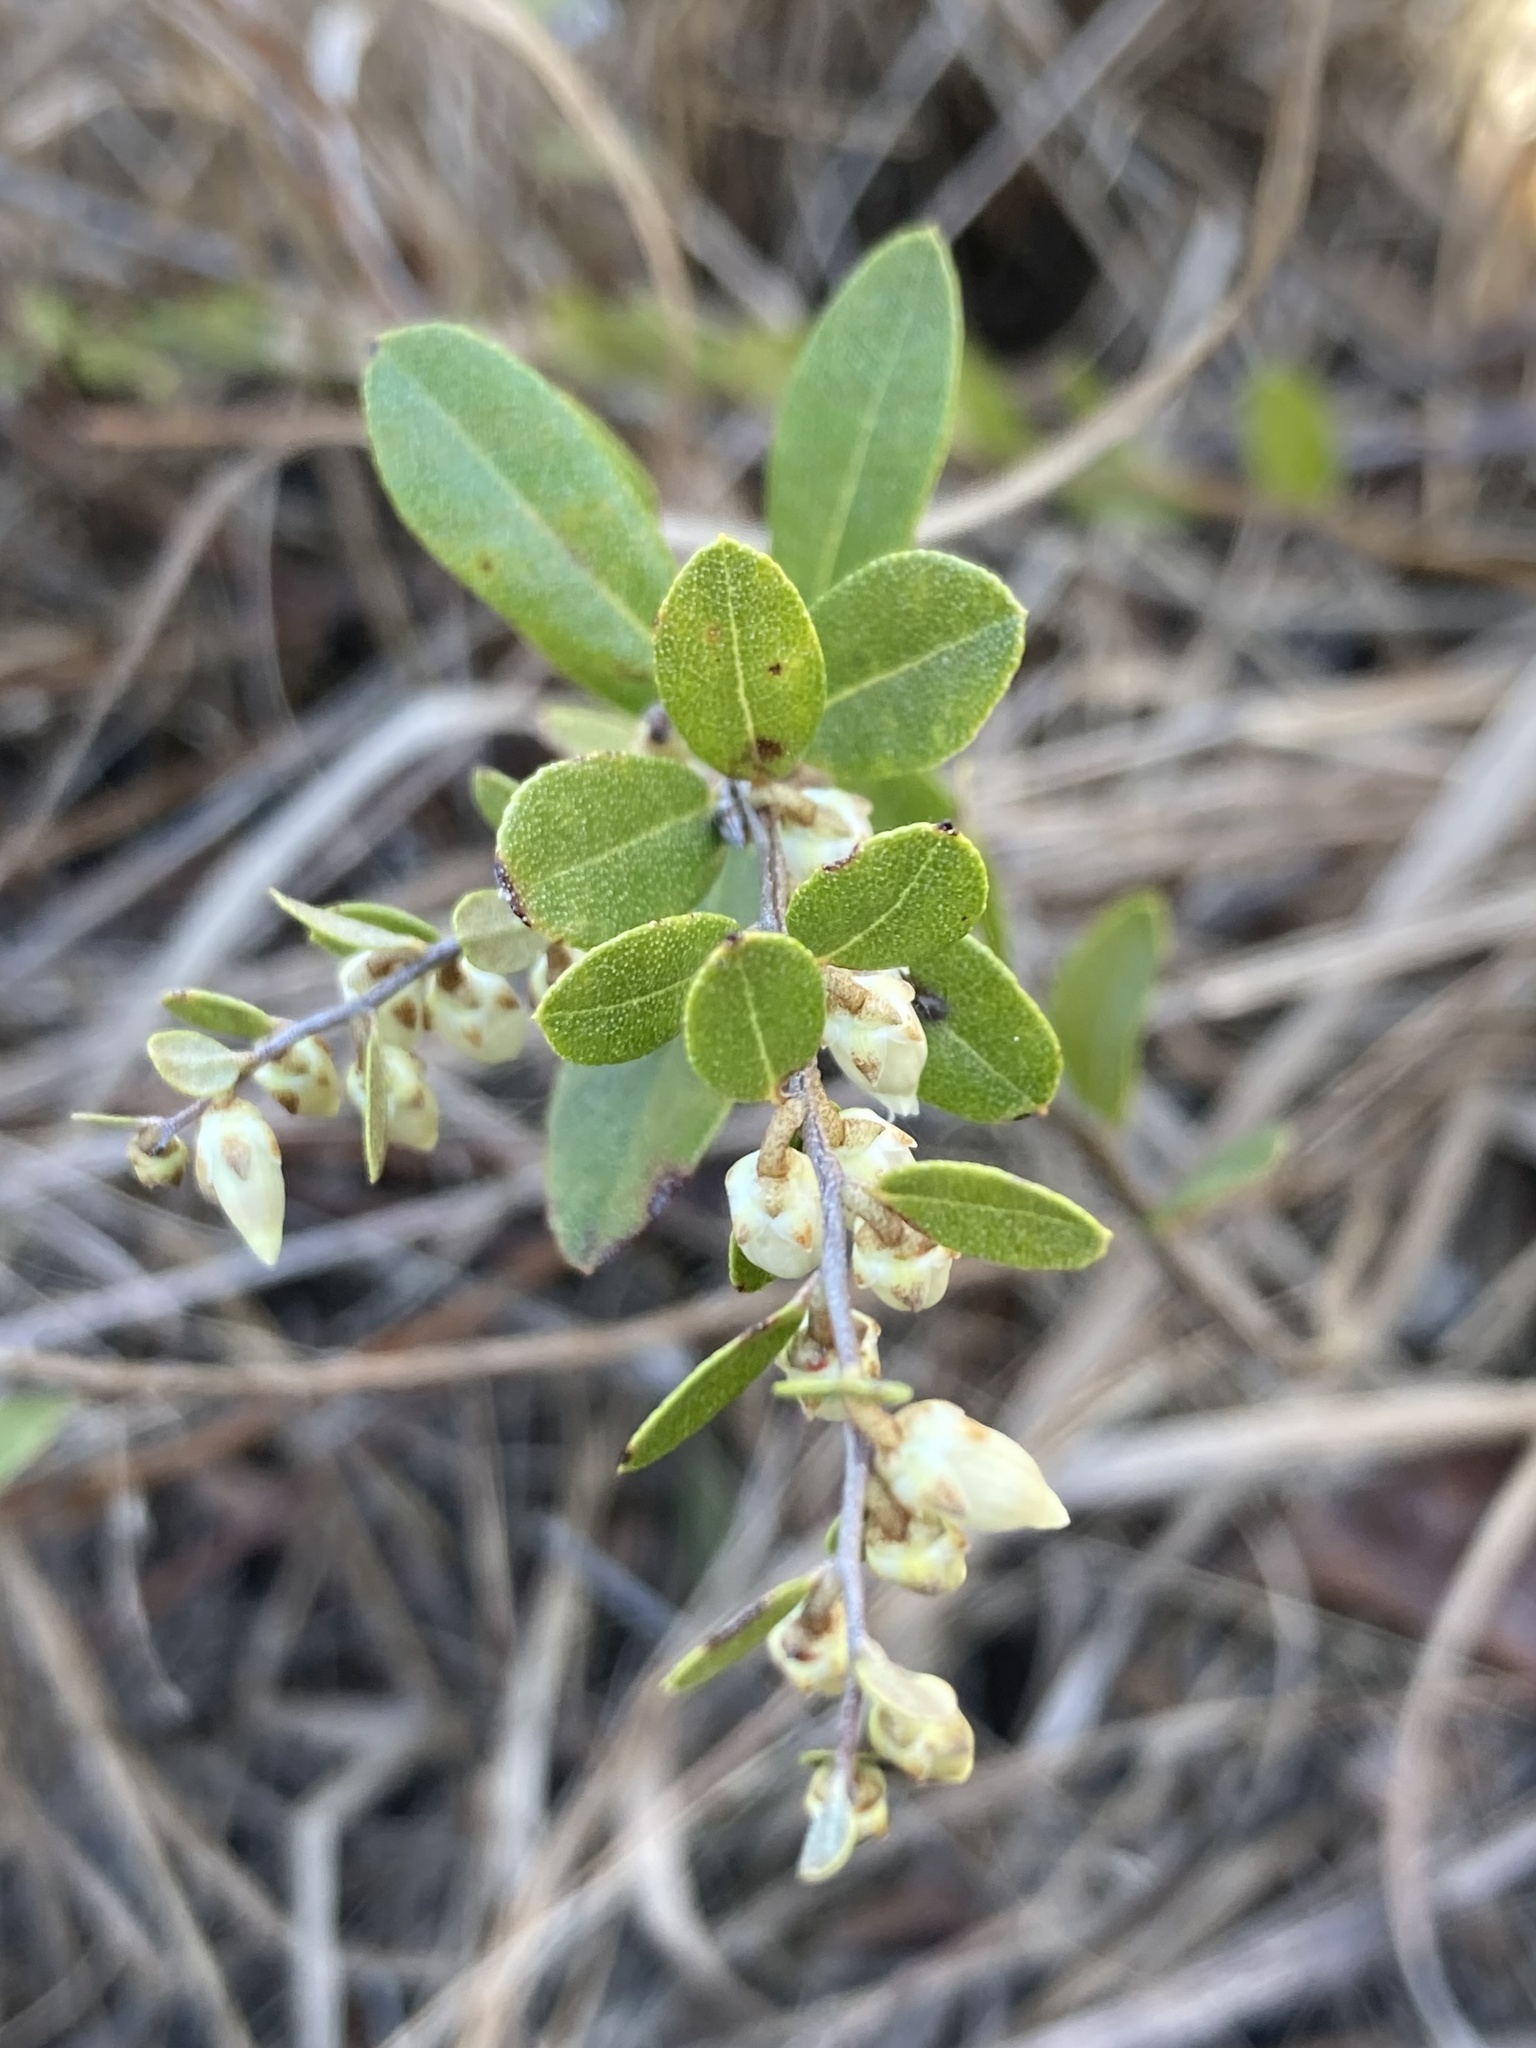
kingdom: Plantae
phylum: Tracheophyta
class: Magnoliopsida
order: Ericales
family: Ericaceae
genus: Chamaedaphne
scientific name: Chamaedaphne calyculata
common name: Leatherleaf
